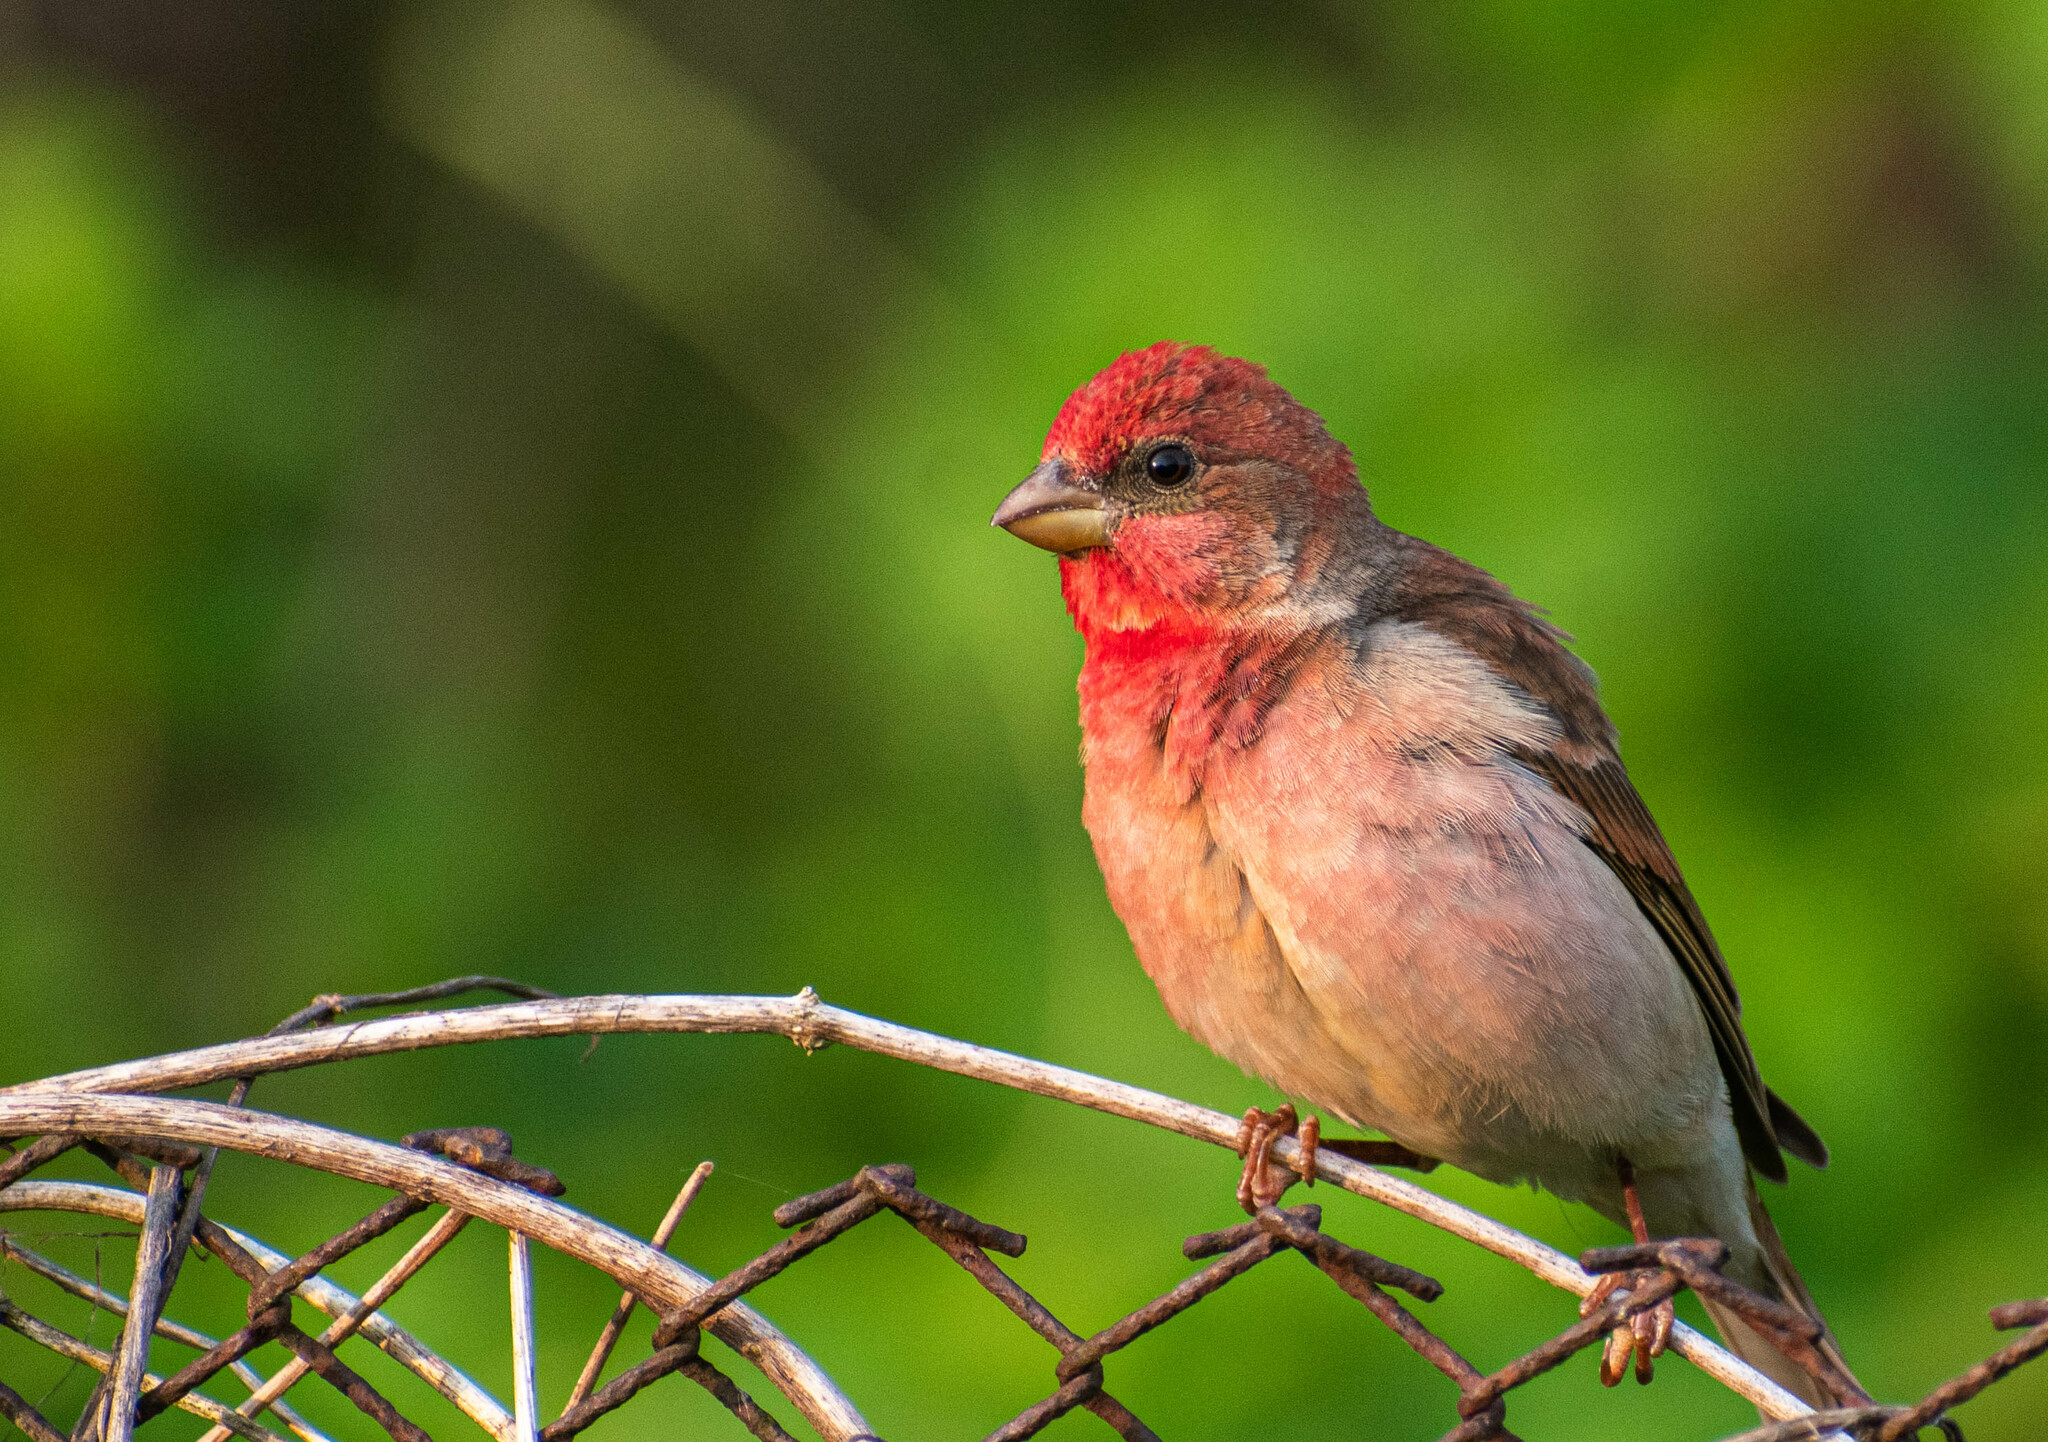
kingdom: Animalia
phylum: Chordata
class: Aves
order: Passeriformes
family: Fringillidae
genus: Carpodacus
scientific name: Carpodacus erythrinus
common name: Common rosefinch
